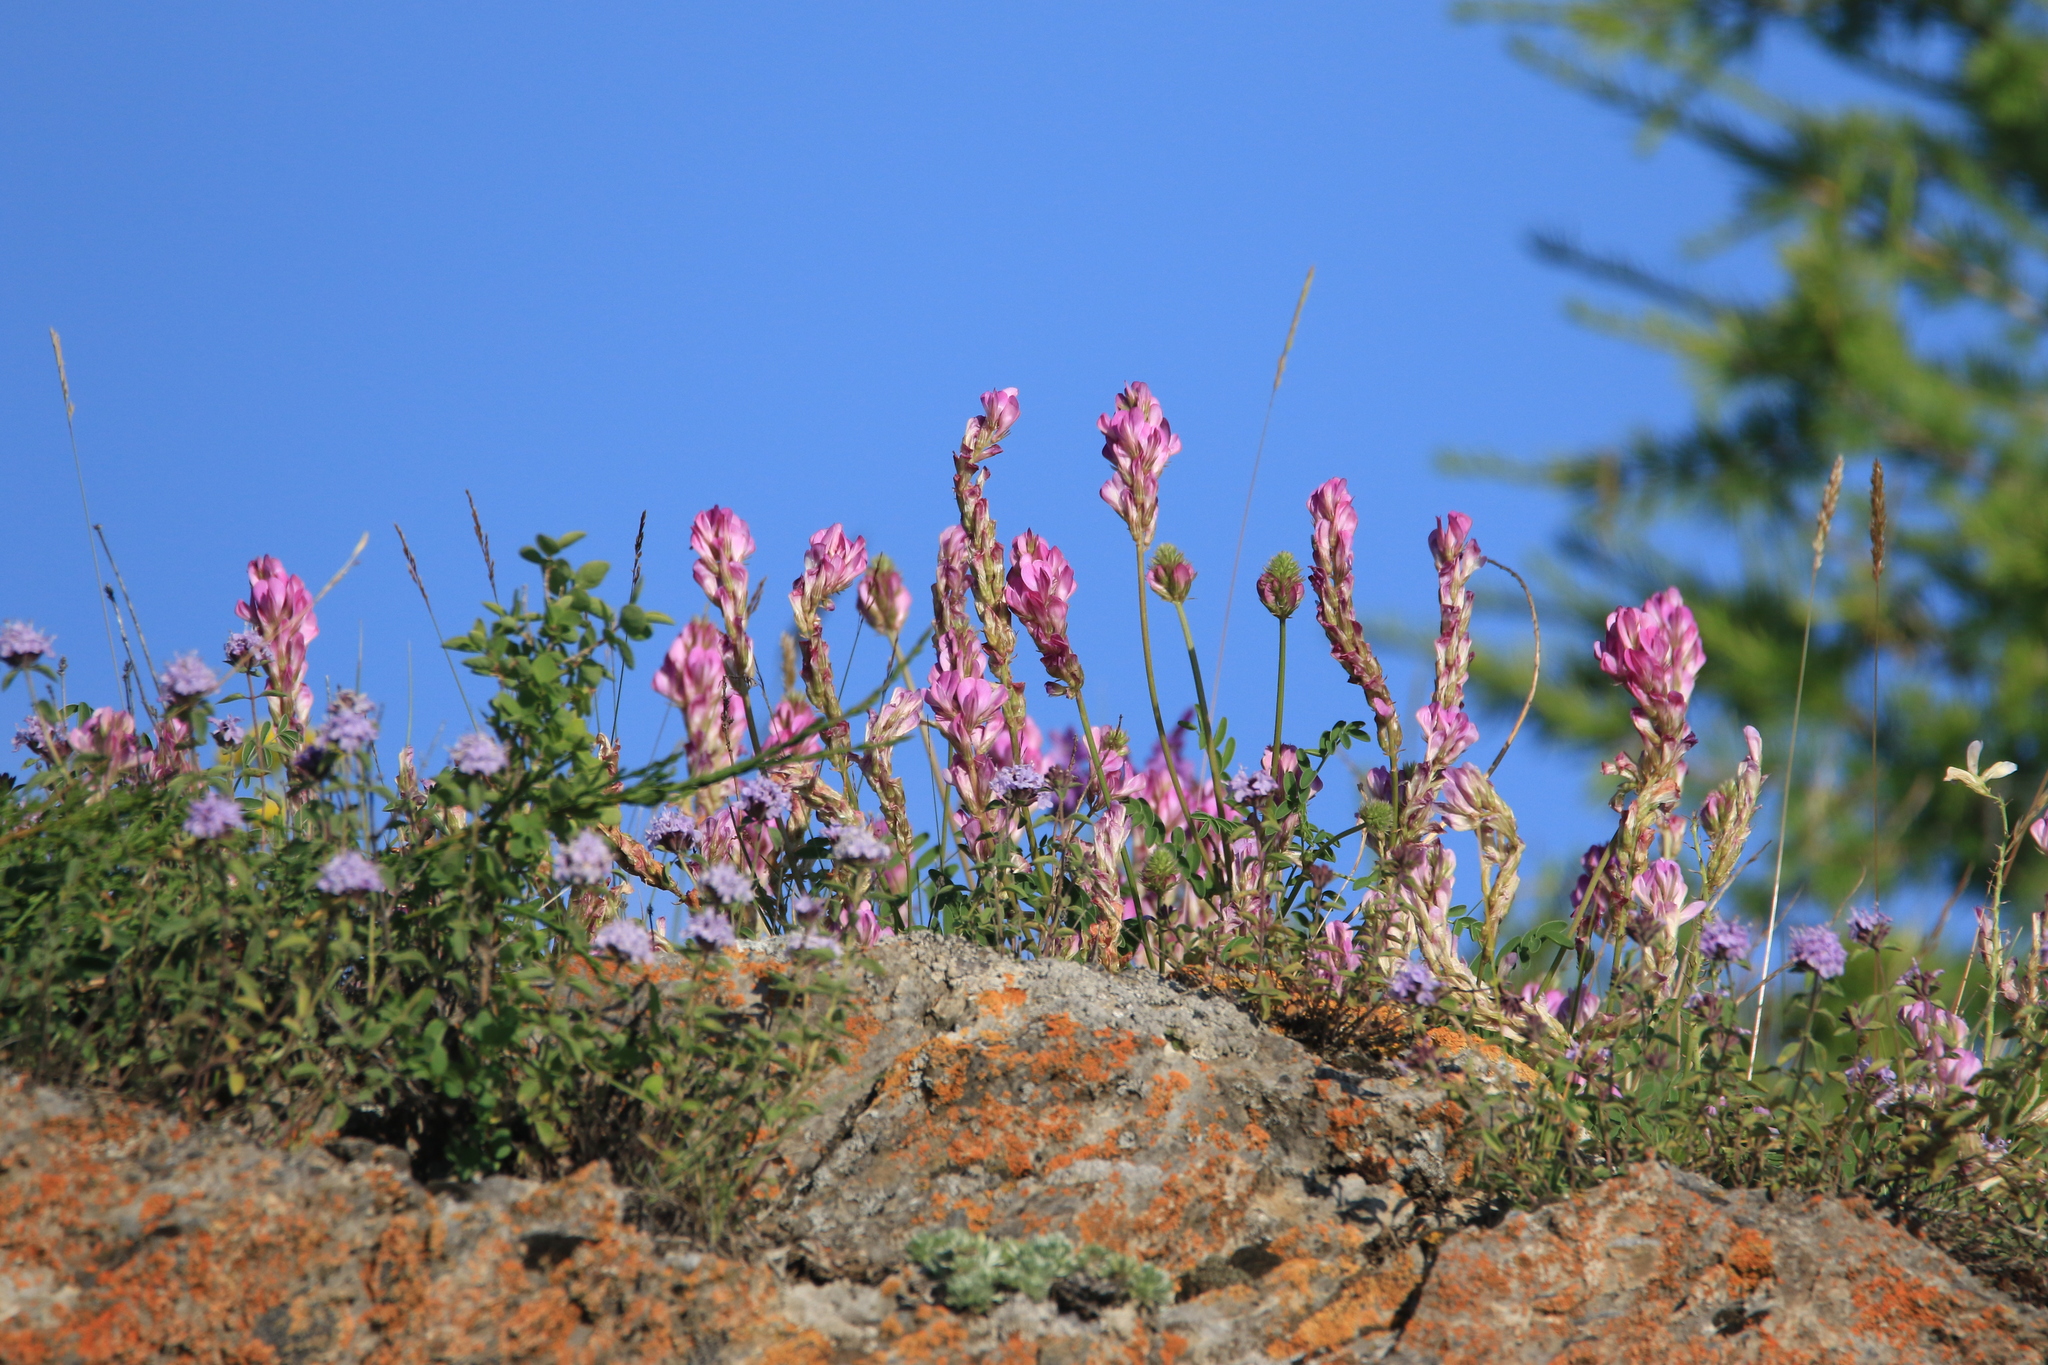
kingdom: Plantae
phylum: Tracheophyta
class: Magnoliopsida
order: Fabales
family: Fabaceae
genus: Hedysarum
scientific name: Hedysarum gmelinii
